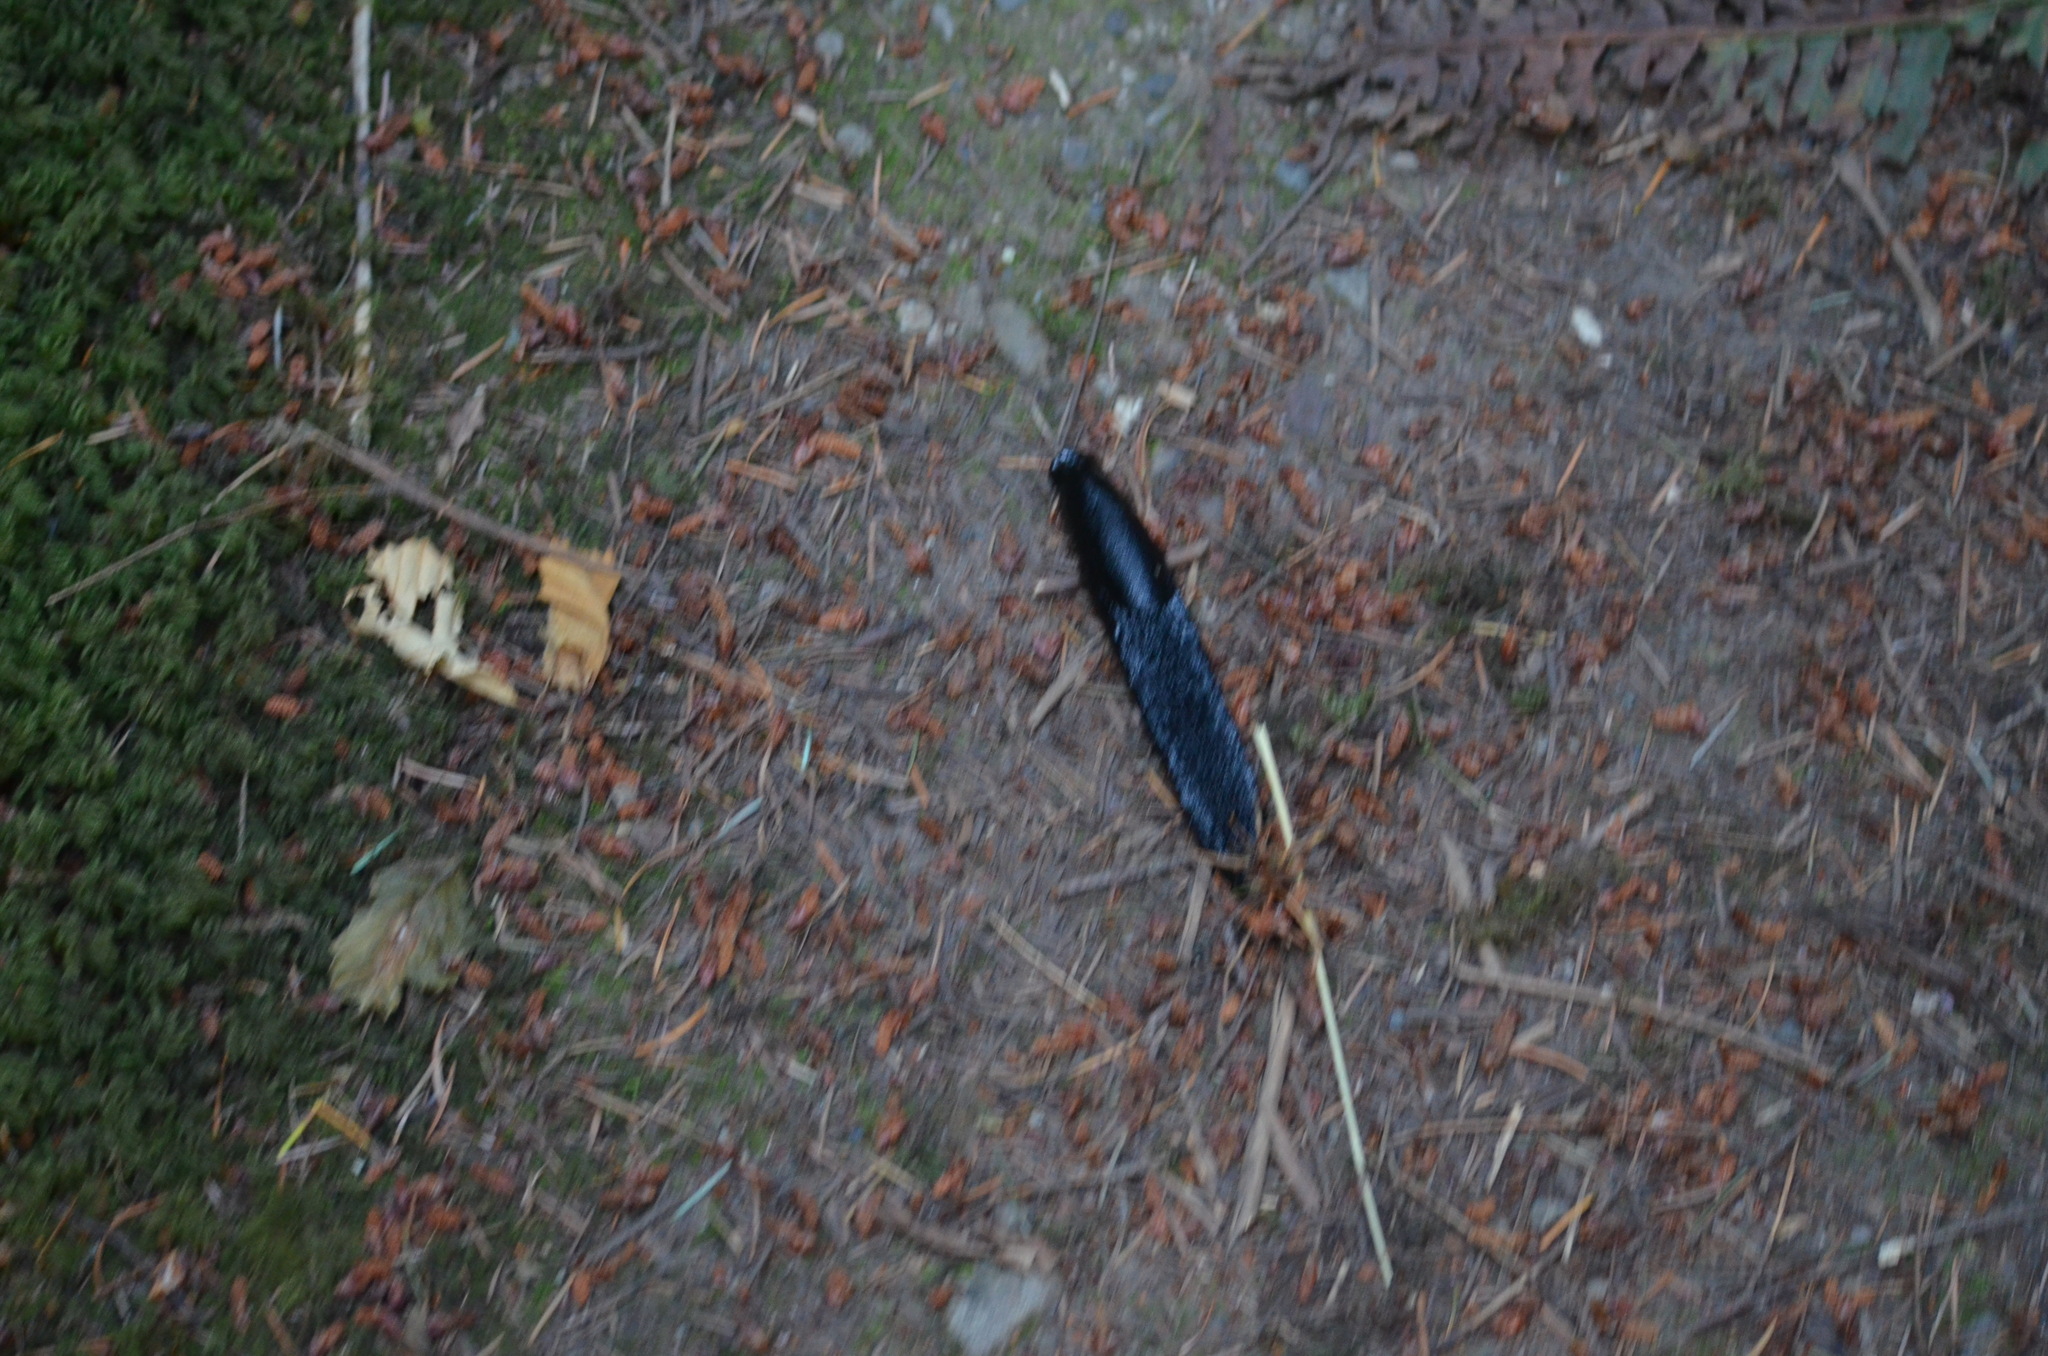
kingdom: Animalia
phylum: Mollusca
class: Gastropoda
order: Stylommatophora
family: Arionidae
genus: Arion
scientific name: Arion
